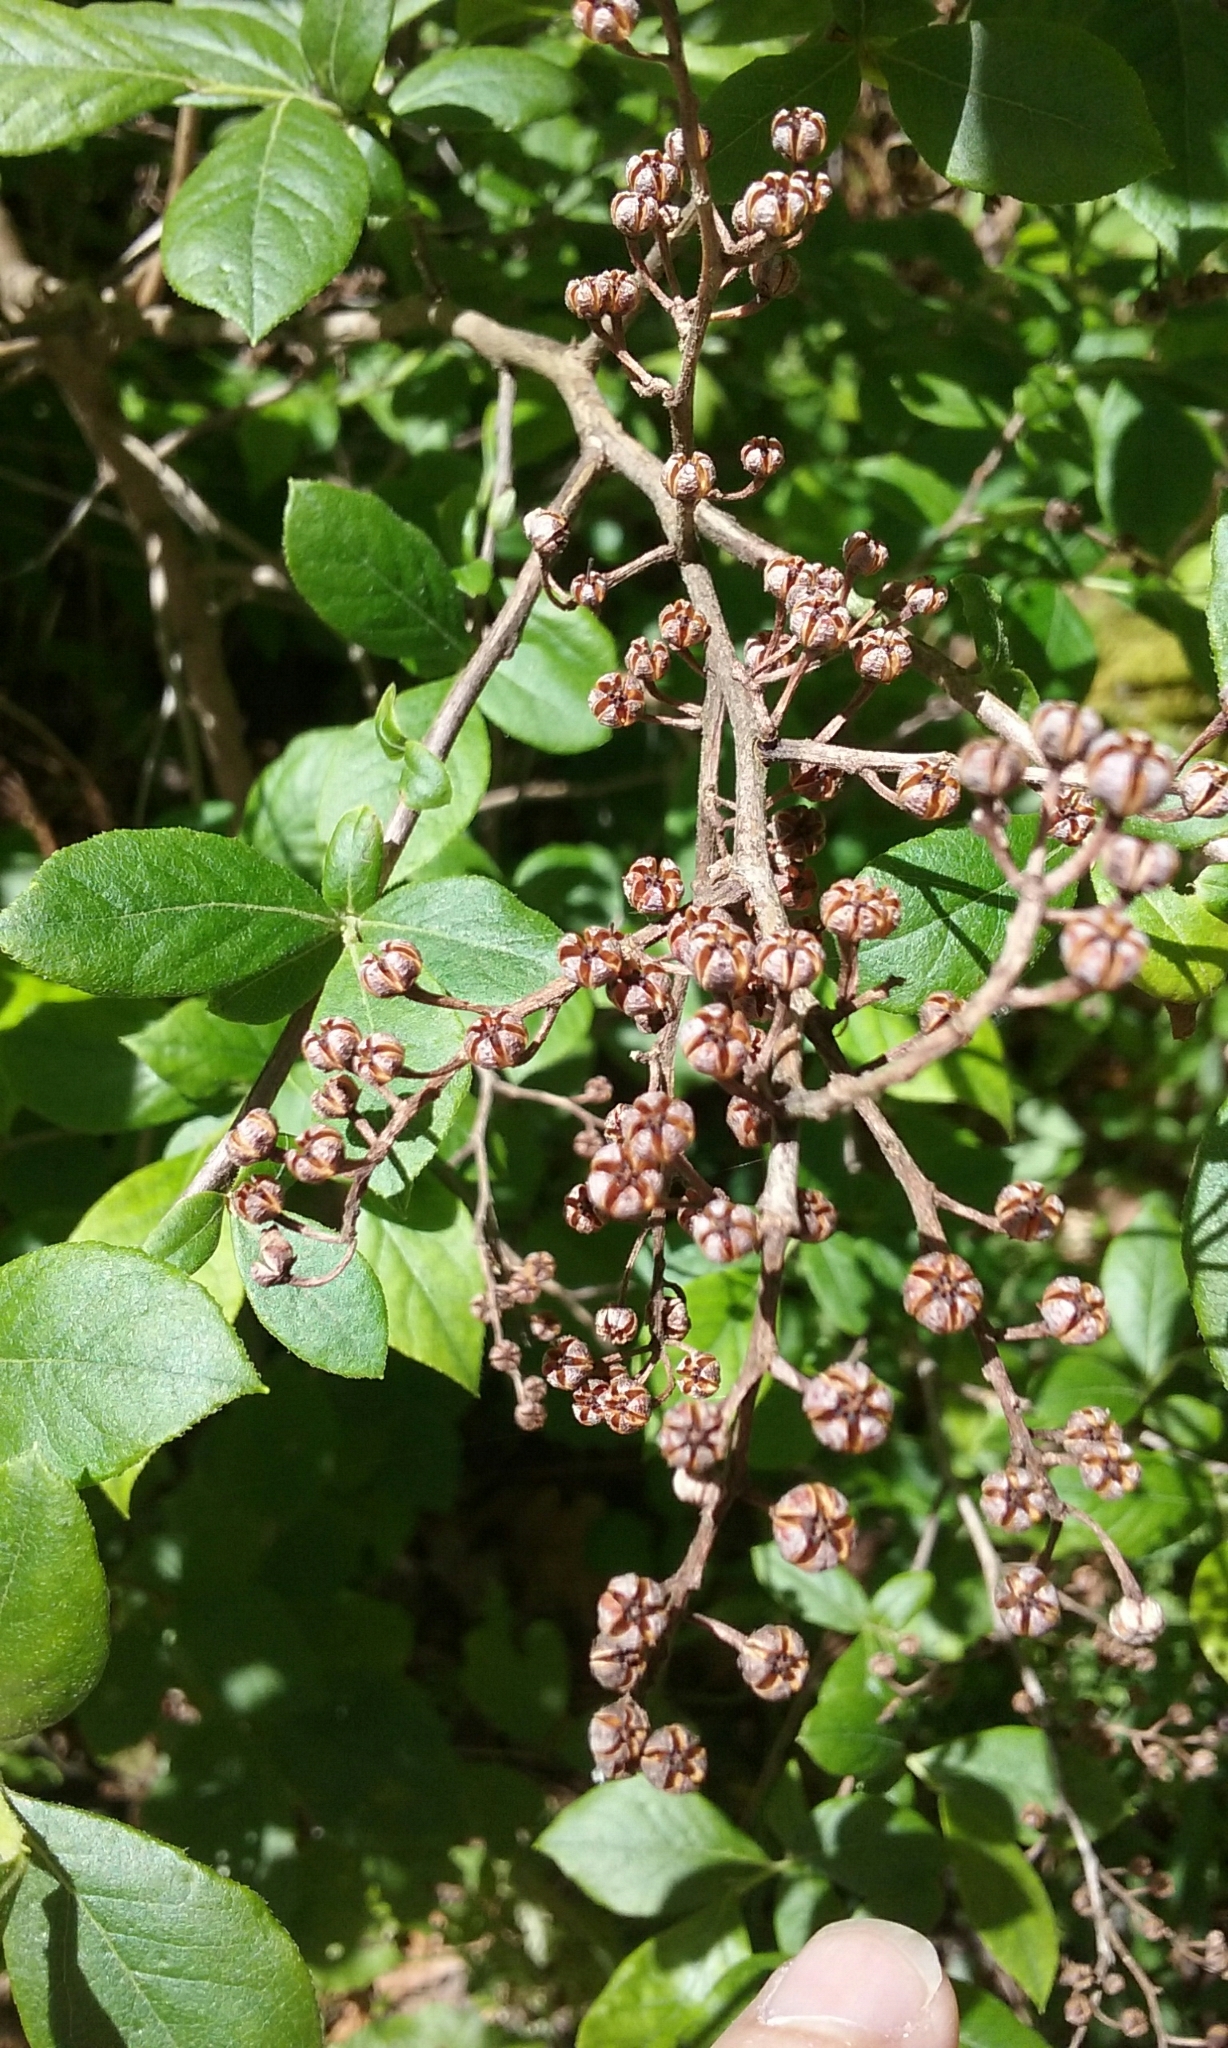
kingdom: Plantae
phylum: Tracheophyta
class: Magnoliopsida
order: Ericales
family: Ericaceae
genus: Lyonia
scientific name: Lyonia ligustrina
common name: Maleberry
